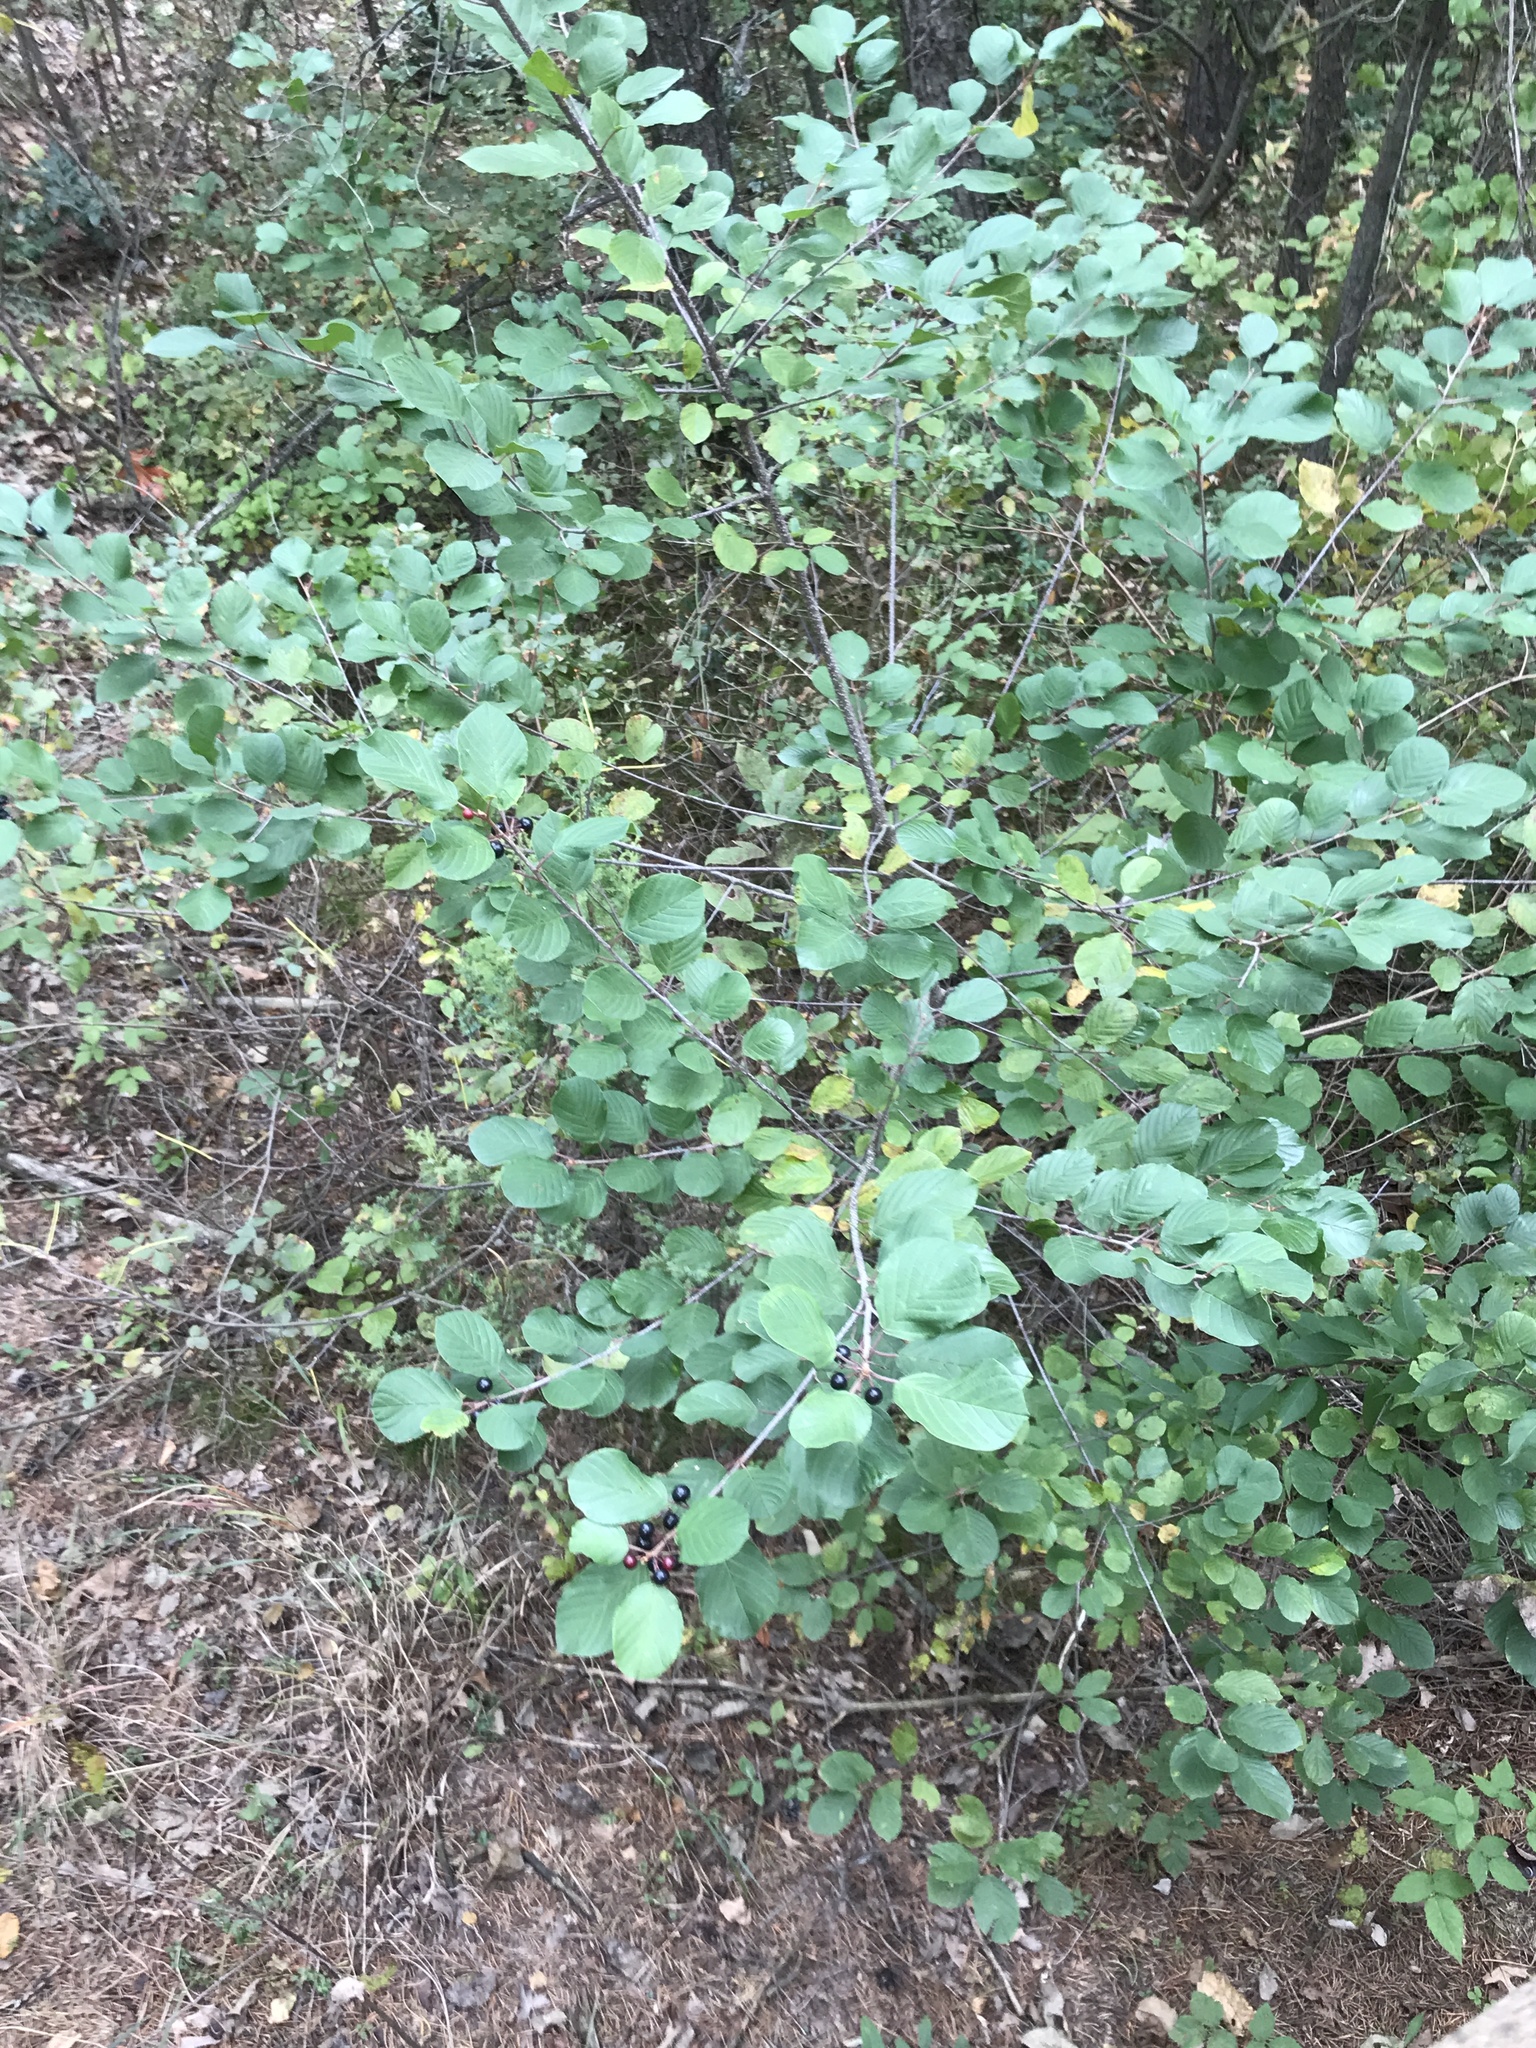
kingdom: Plantae
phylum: Tracheophyta
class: Magnoliopsida
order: Rosales
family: Rhamnaceae
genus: Frangula
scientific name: Frangula alnus
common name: Alder buckthorn
